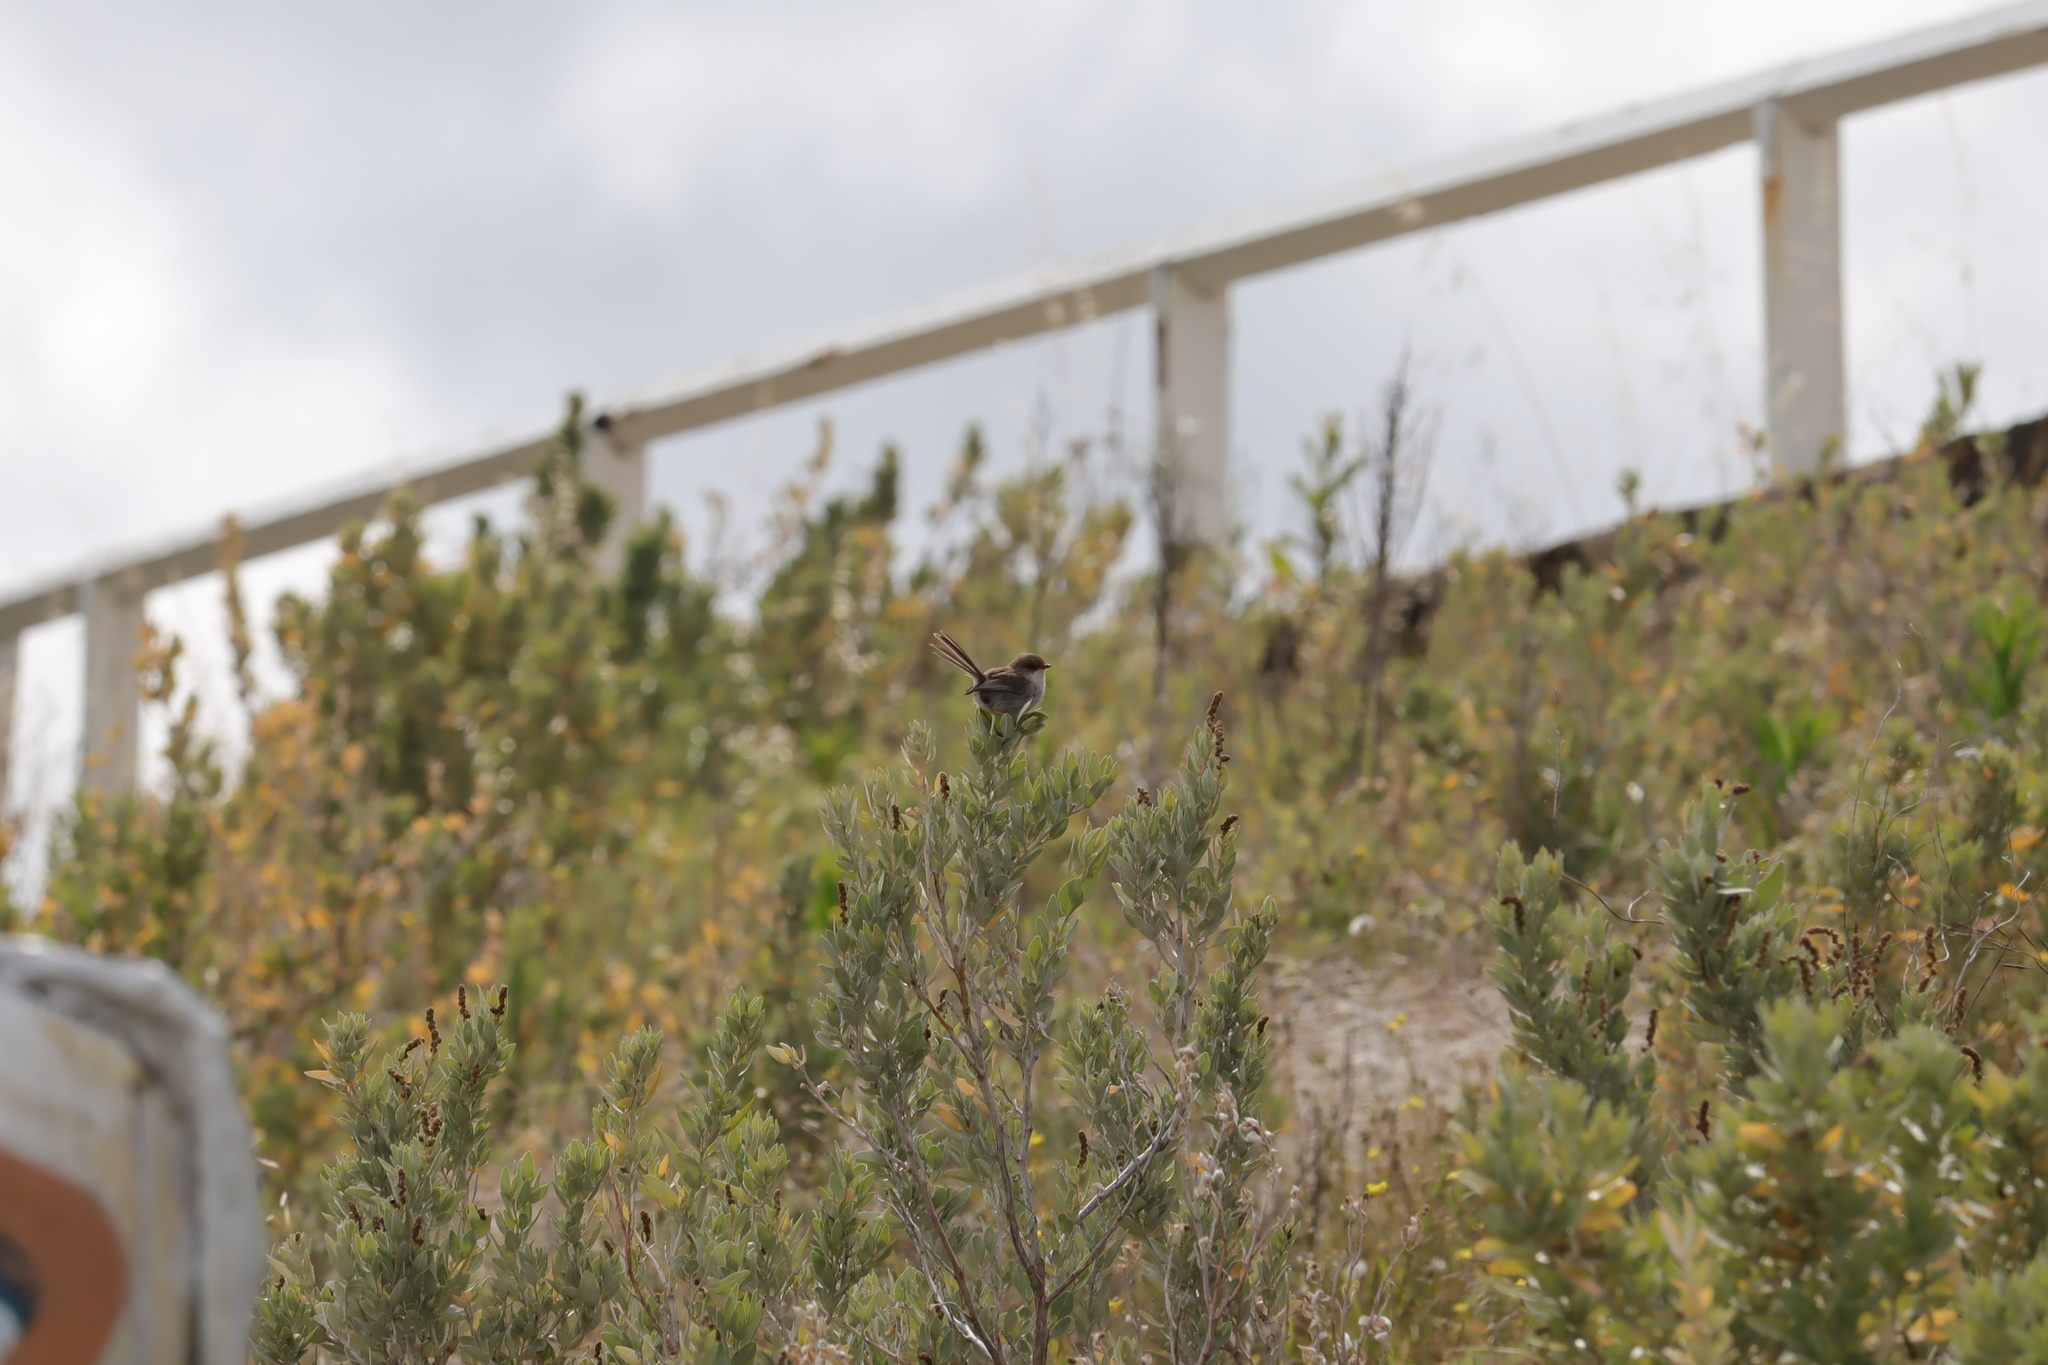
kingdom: Animalia
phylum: Chordata
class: Aves
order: Passeriformes
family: Maluridae
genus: Malurus
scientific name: Malurus cyaneus
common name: Superb fairywren
